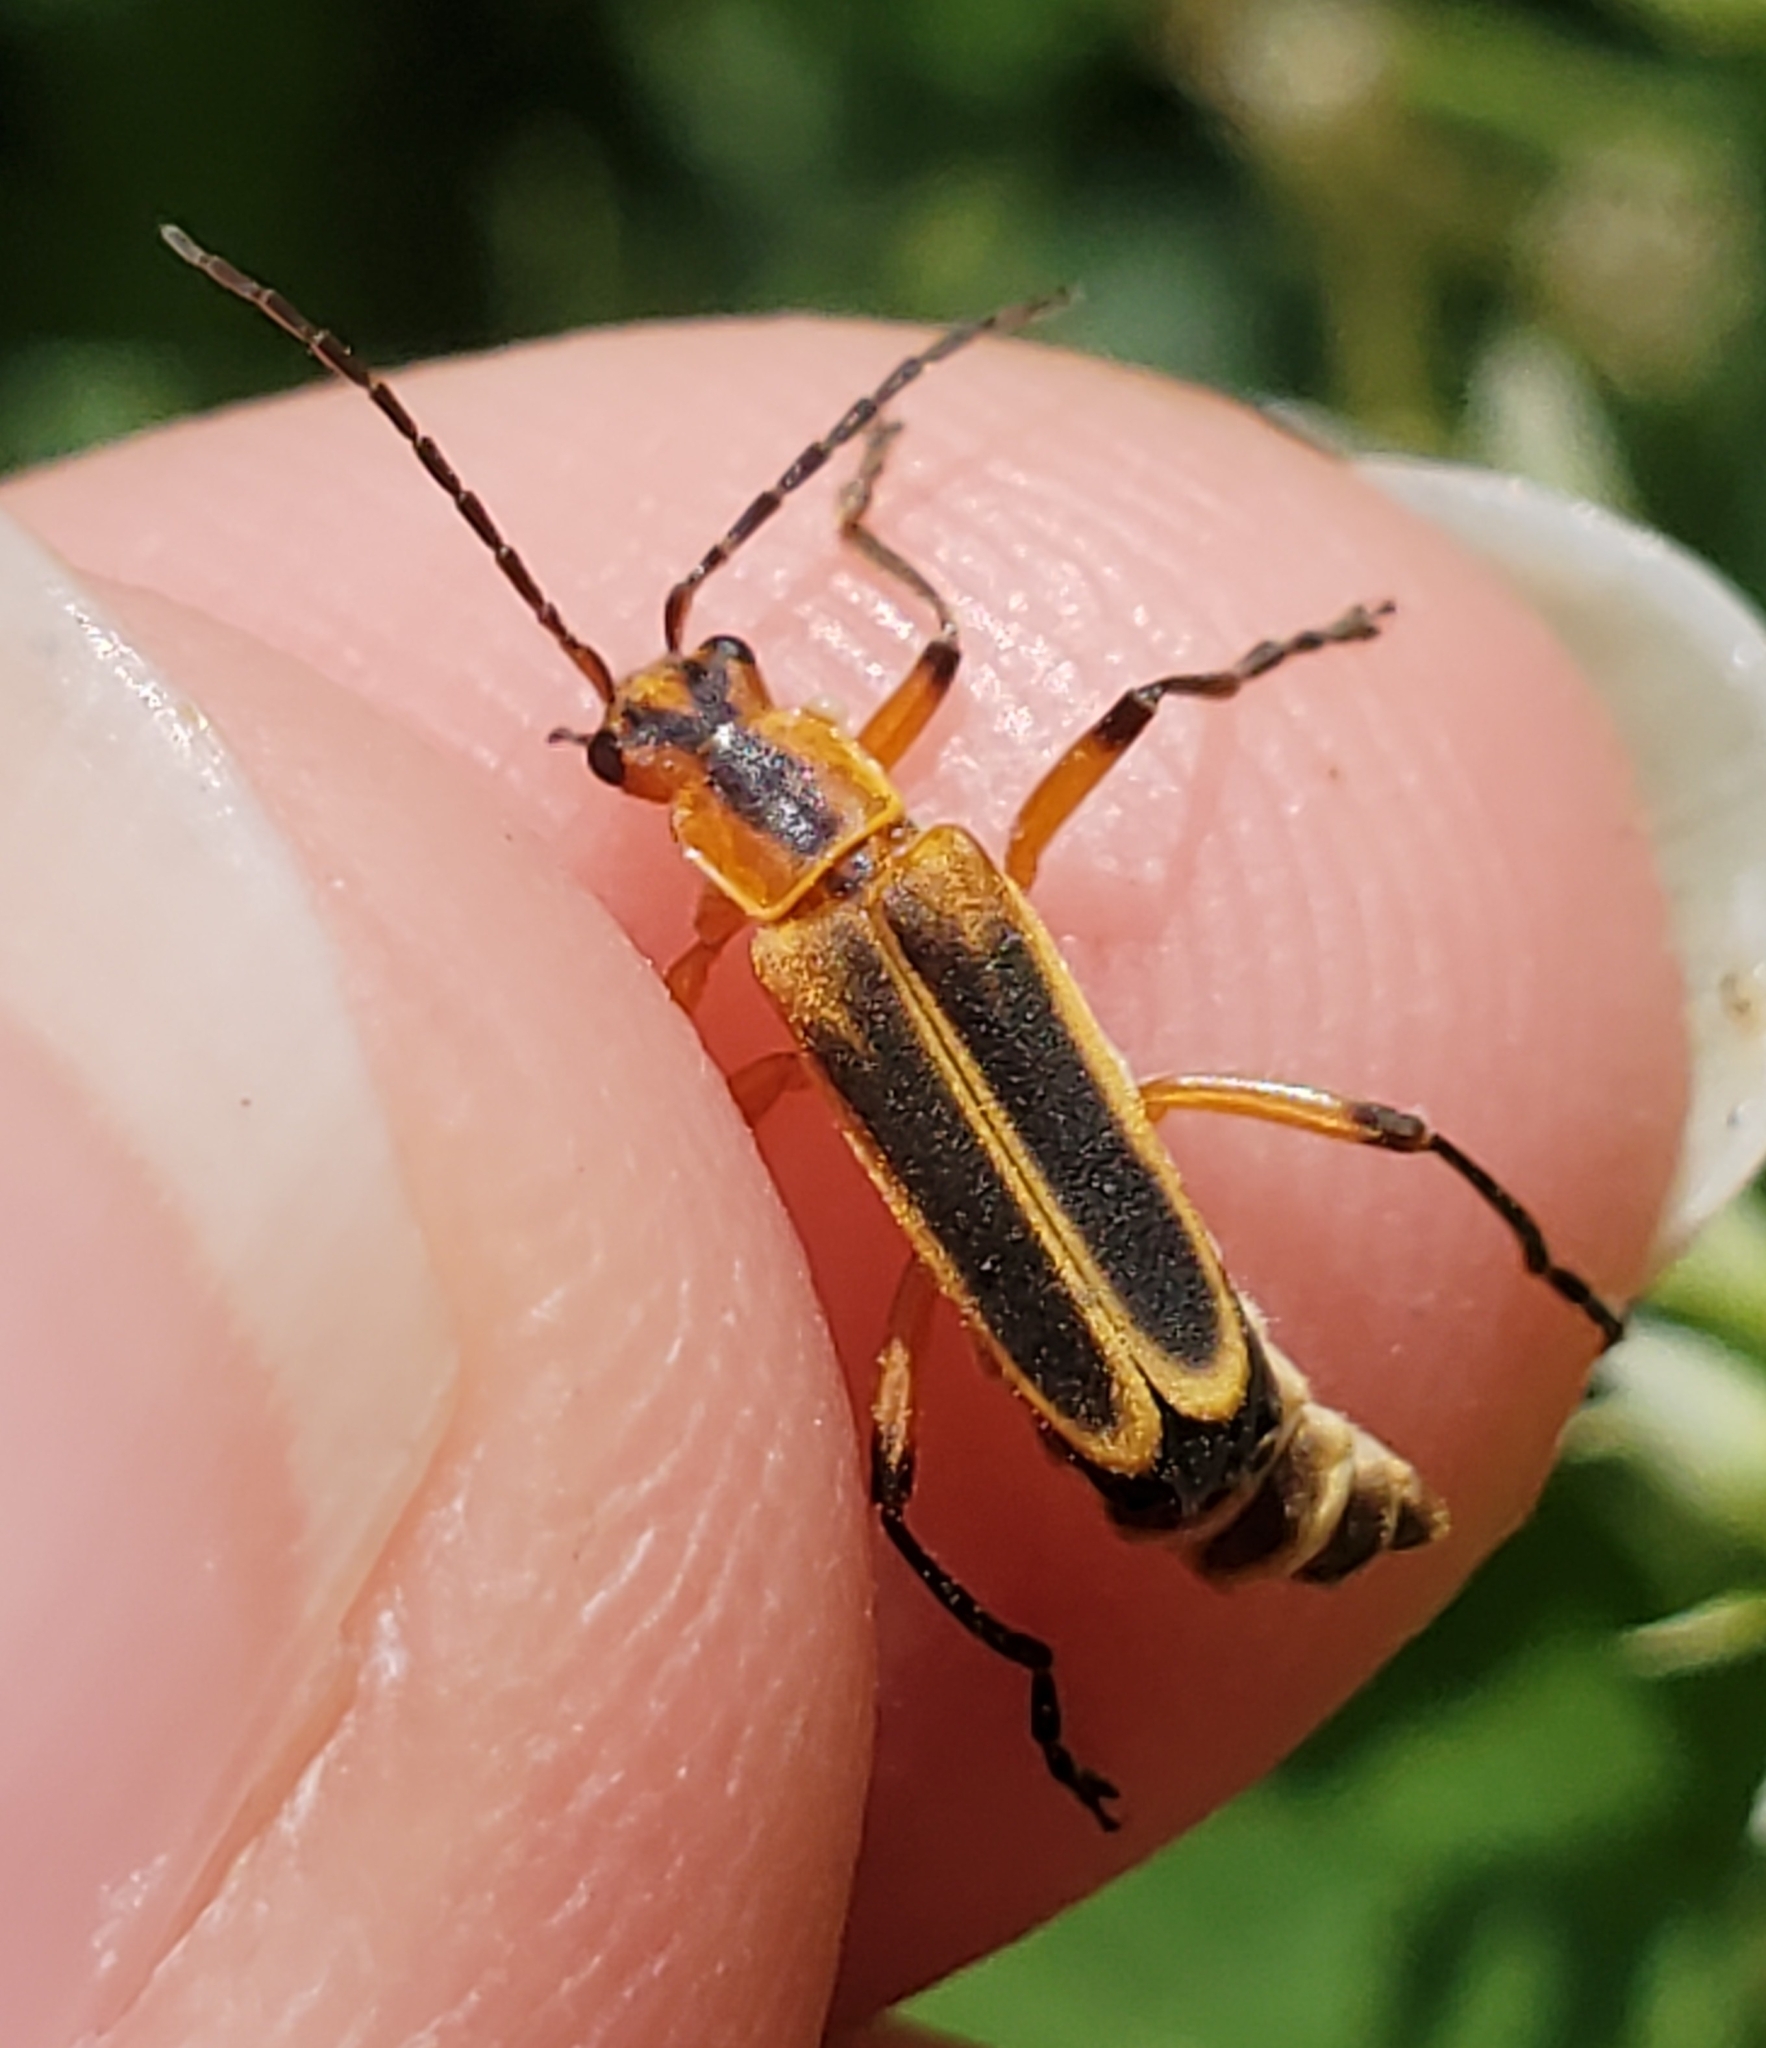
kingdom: Animalia
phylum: Arthropoda
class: Insecta
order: Coleoptera
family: Cantharidae
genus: Chauliognathus
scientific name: Chauliognathus marginatus
